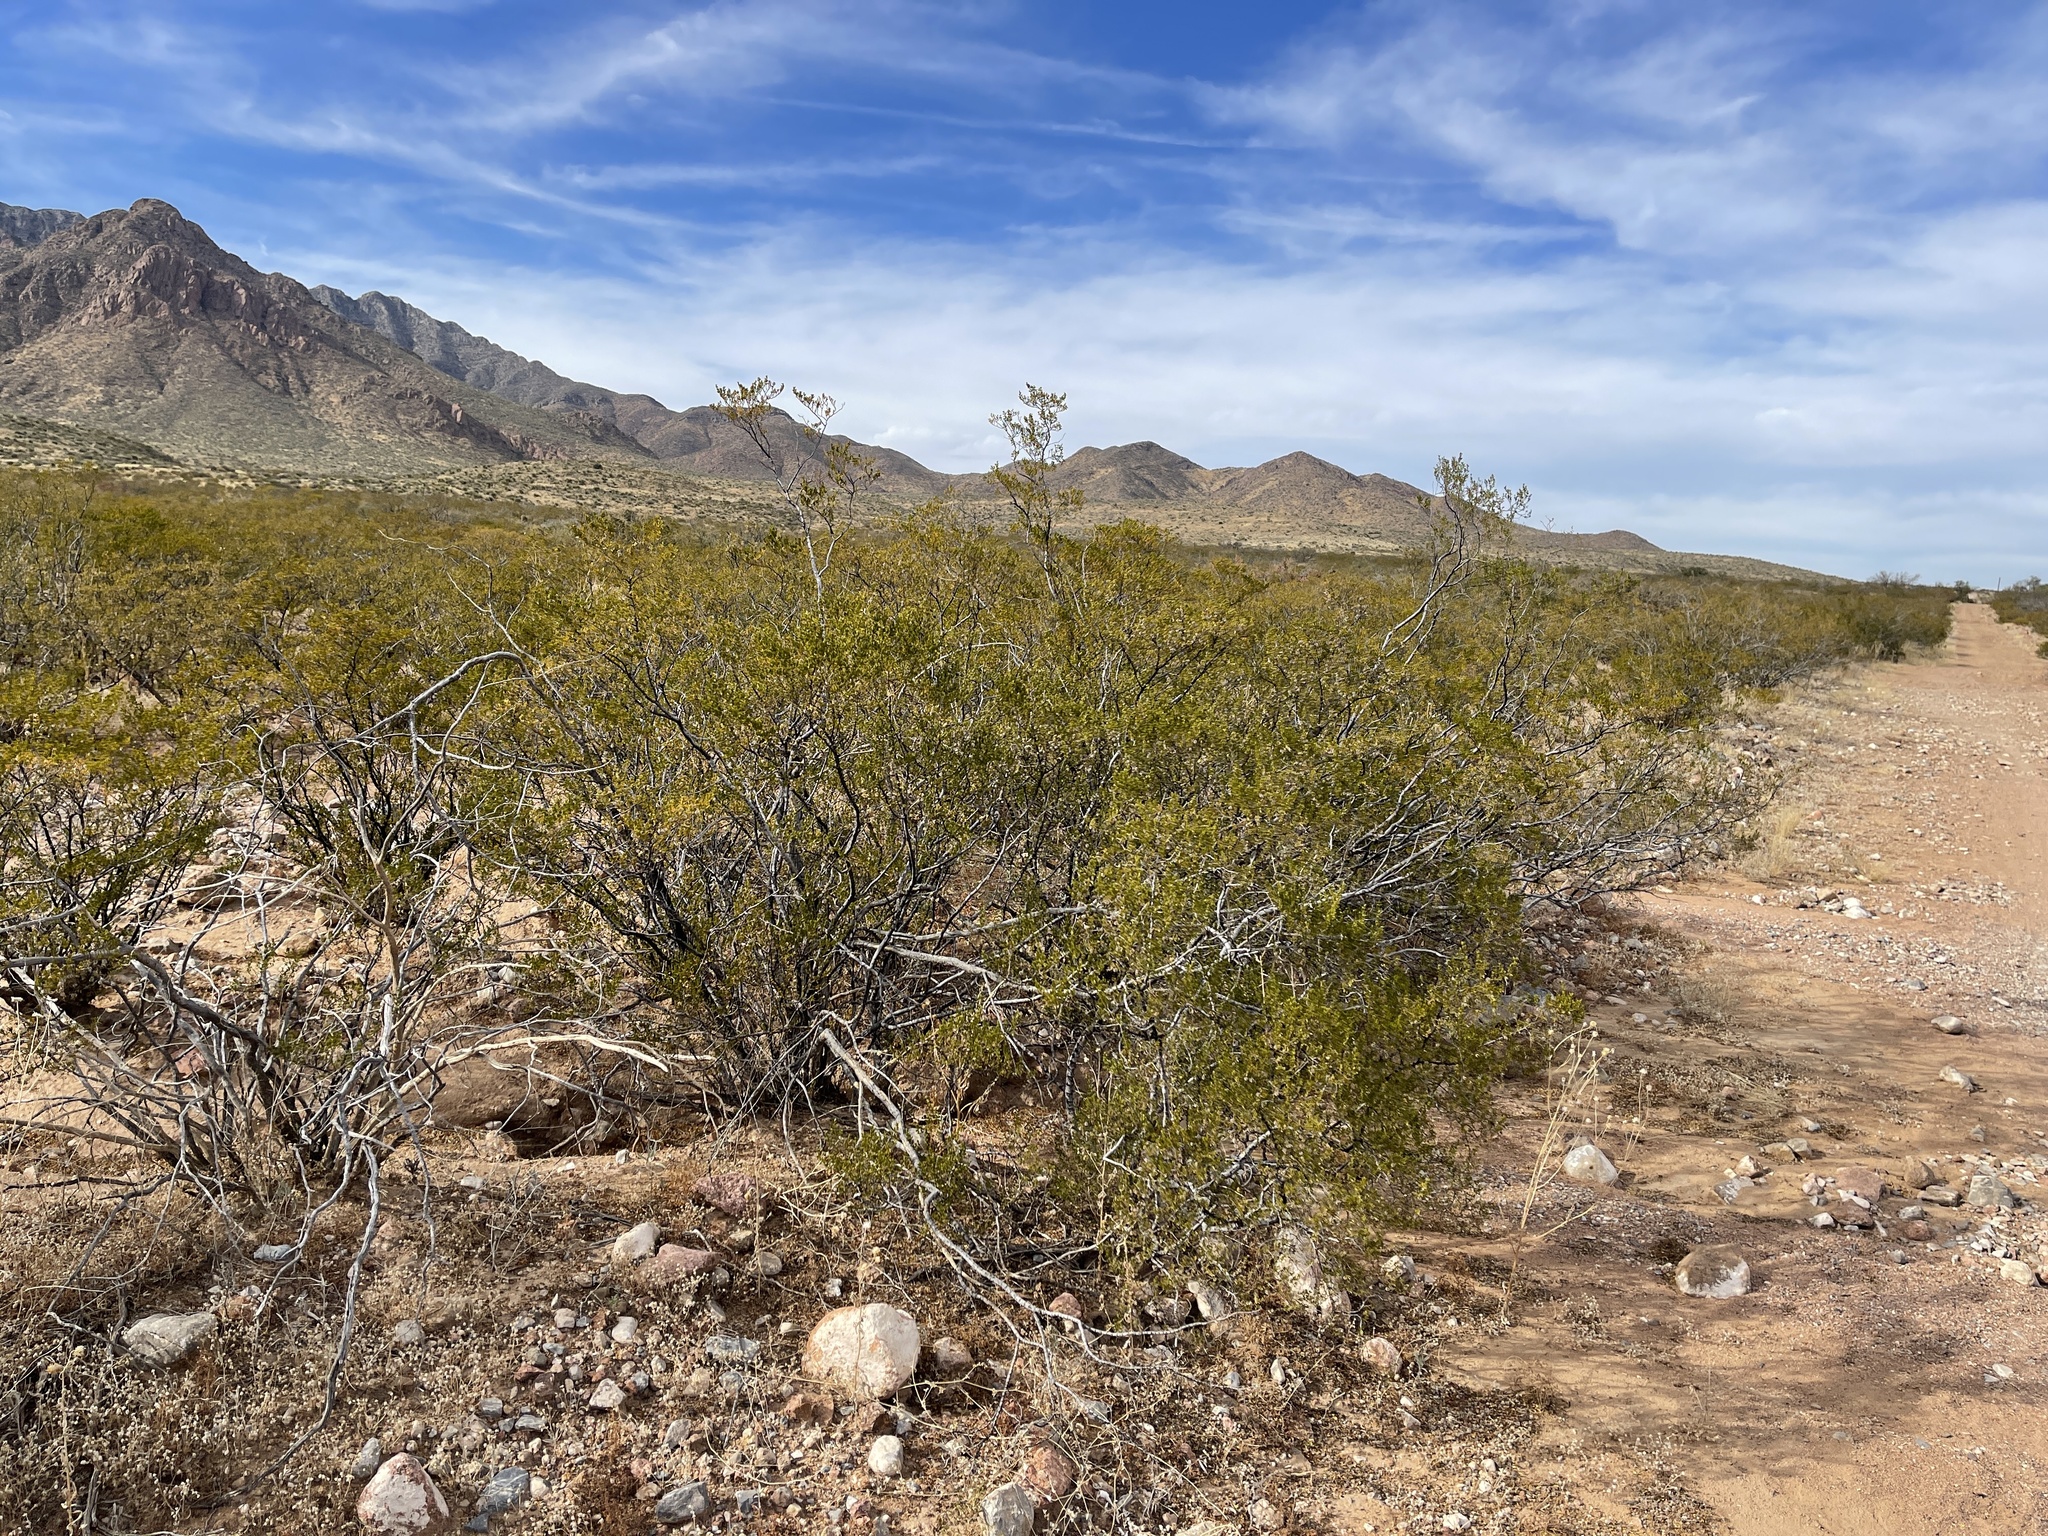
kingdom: Plantae
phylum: Tracheophyta
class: Magnoliopsida
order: Zygophyllales
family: Zygophyllaceae
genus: Larrea
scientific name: Larrea tridentata
